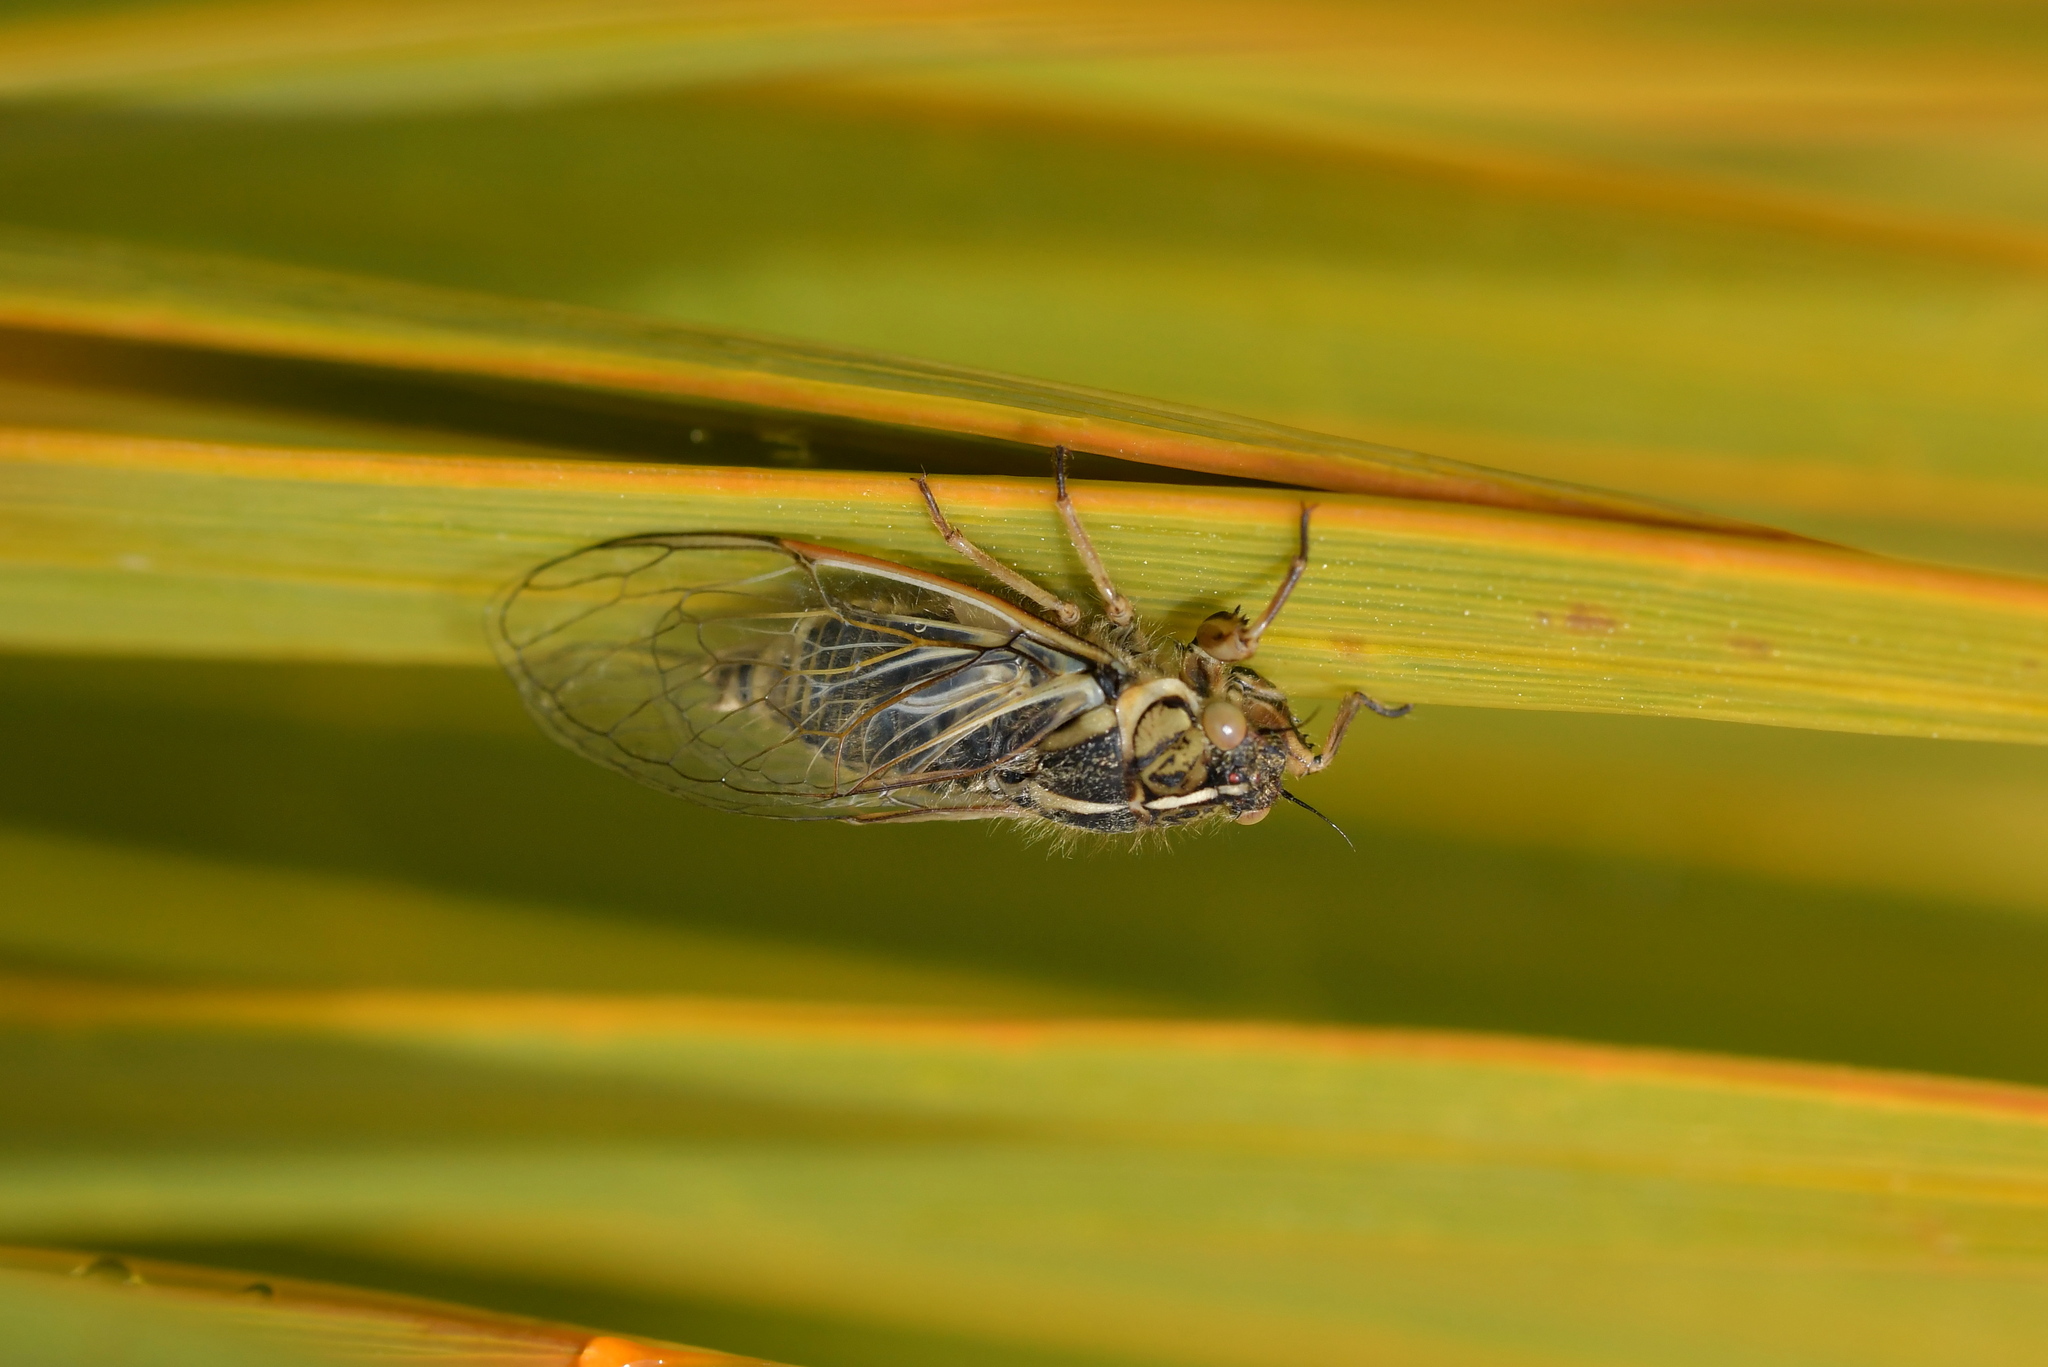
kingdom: Animalia
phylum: Arthropoda
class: Insecta
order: Hemiptera
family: Cicadidae
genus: Kikihia
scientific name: Kikihia angusta
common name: Tussock cicada
